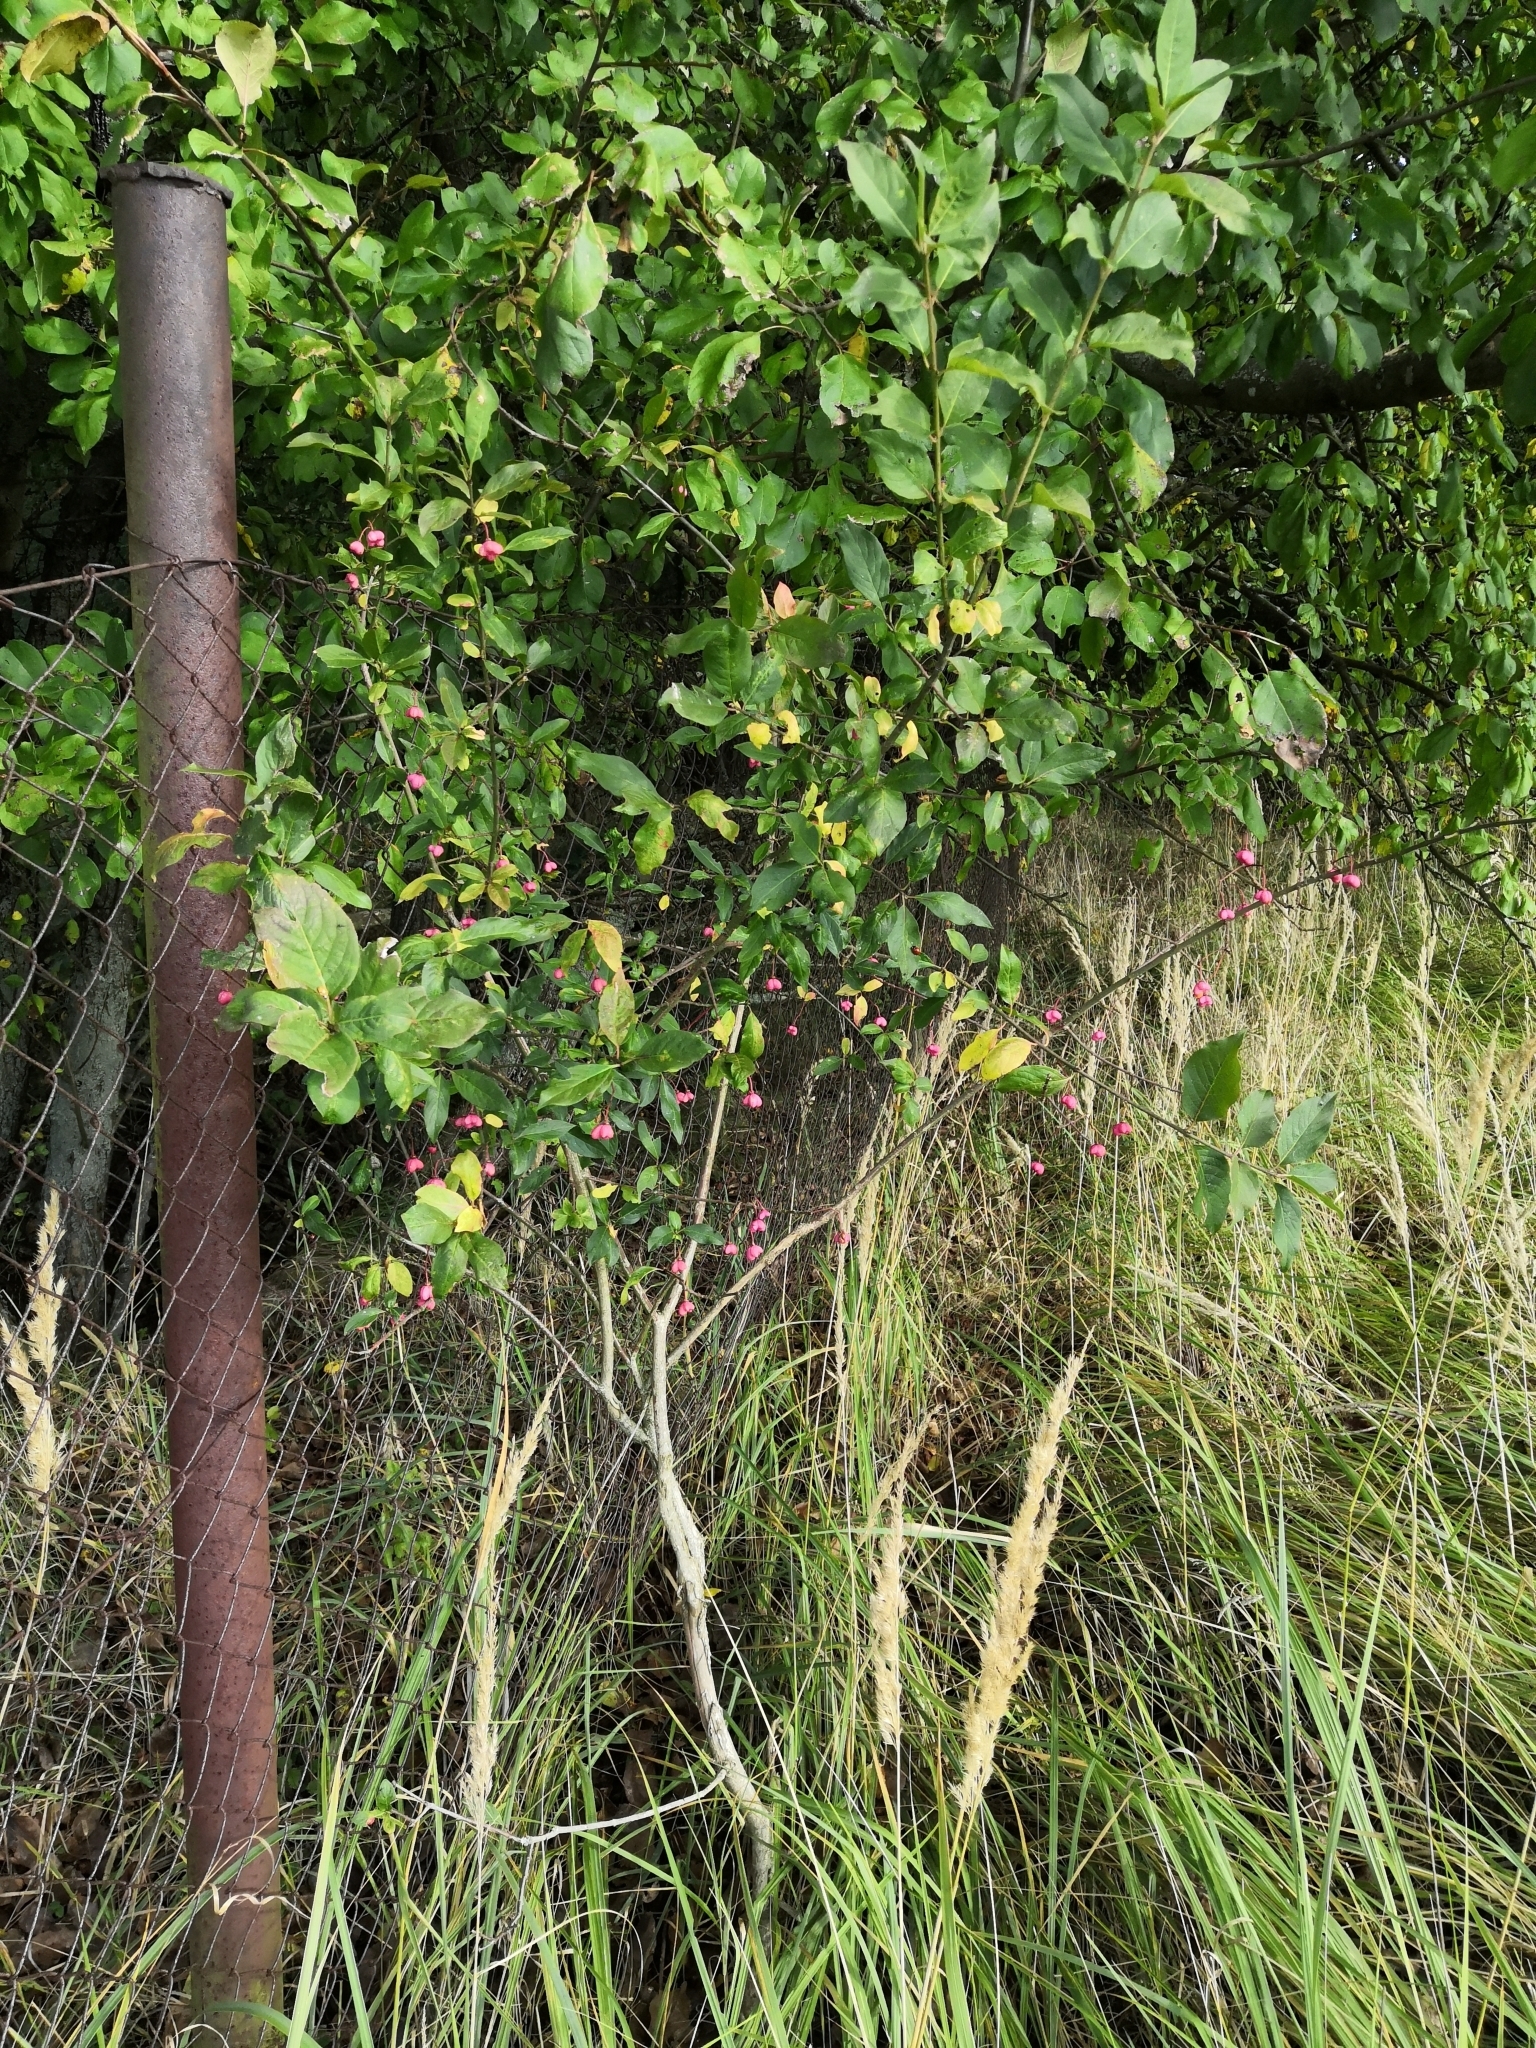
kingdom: Plantae
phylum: Tracheophyta
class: Magnoliopsida
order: Celastrales
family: Celastraceae
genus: Euonymus
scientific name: Euonymus europaeus
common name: Spindle
